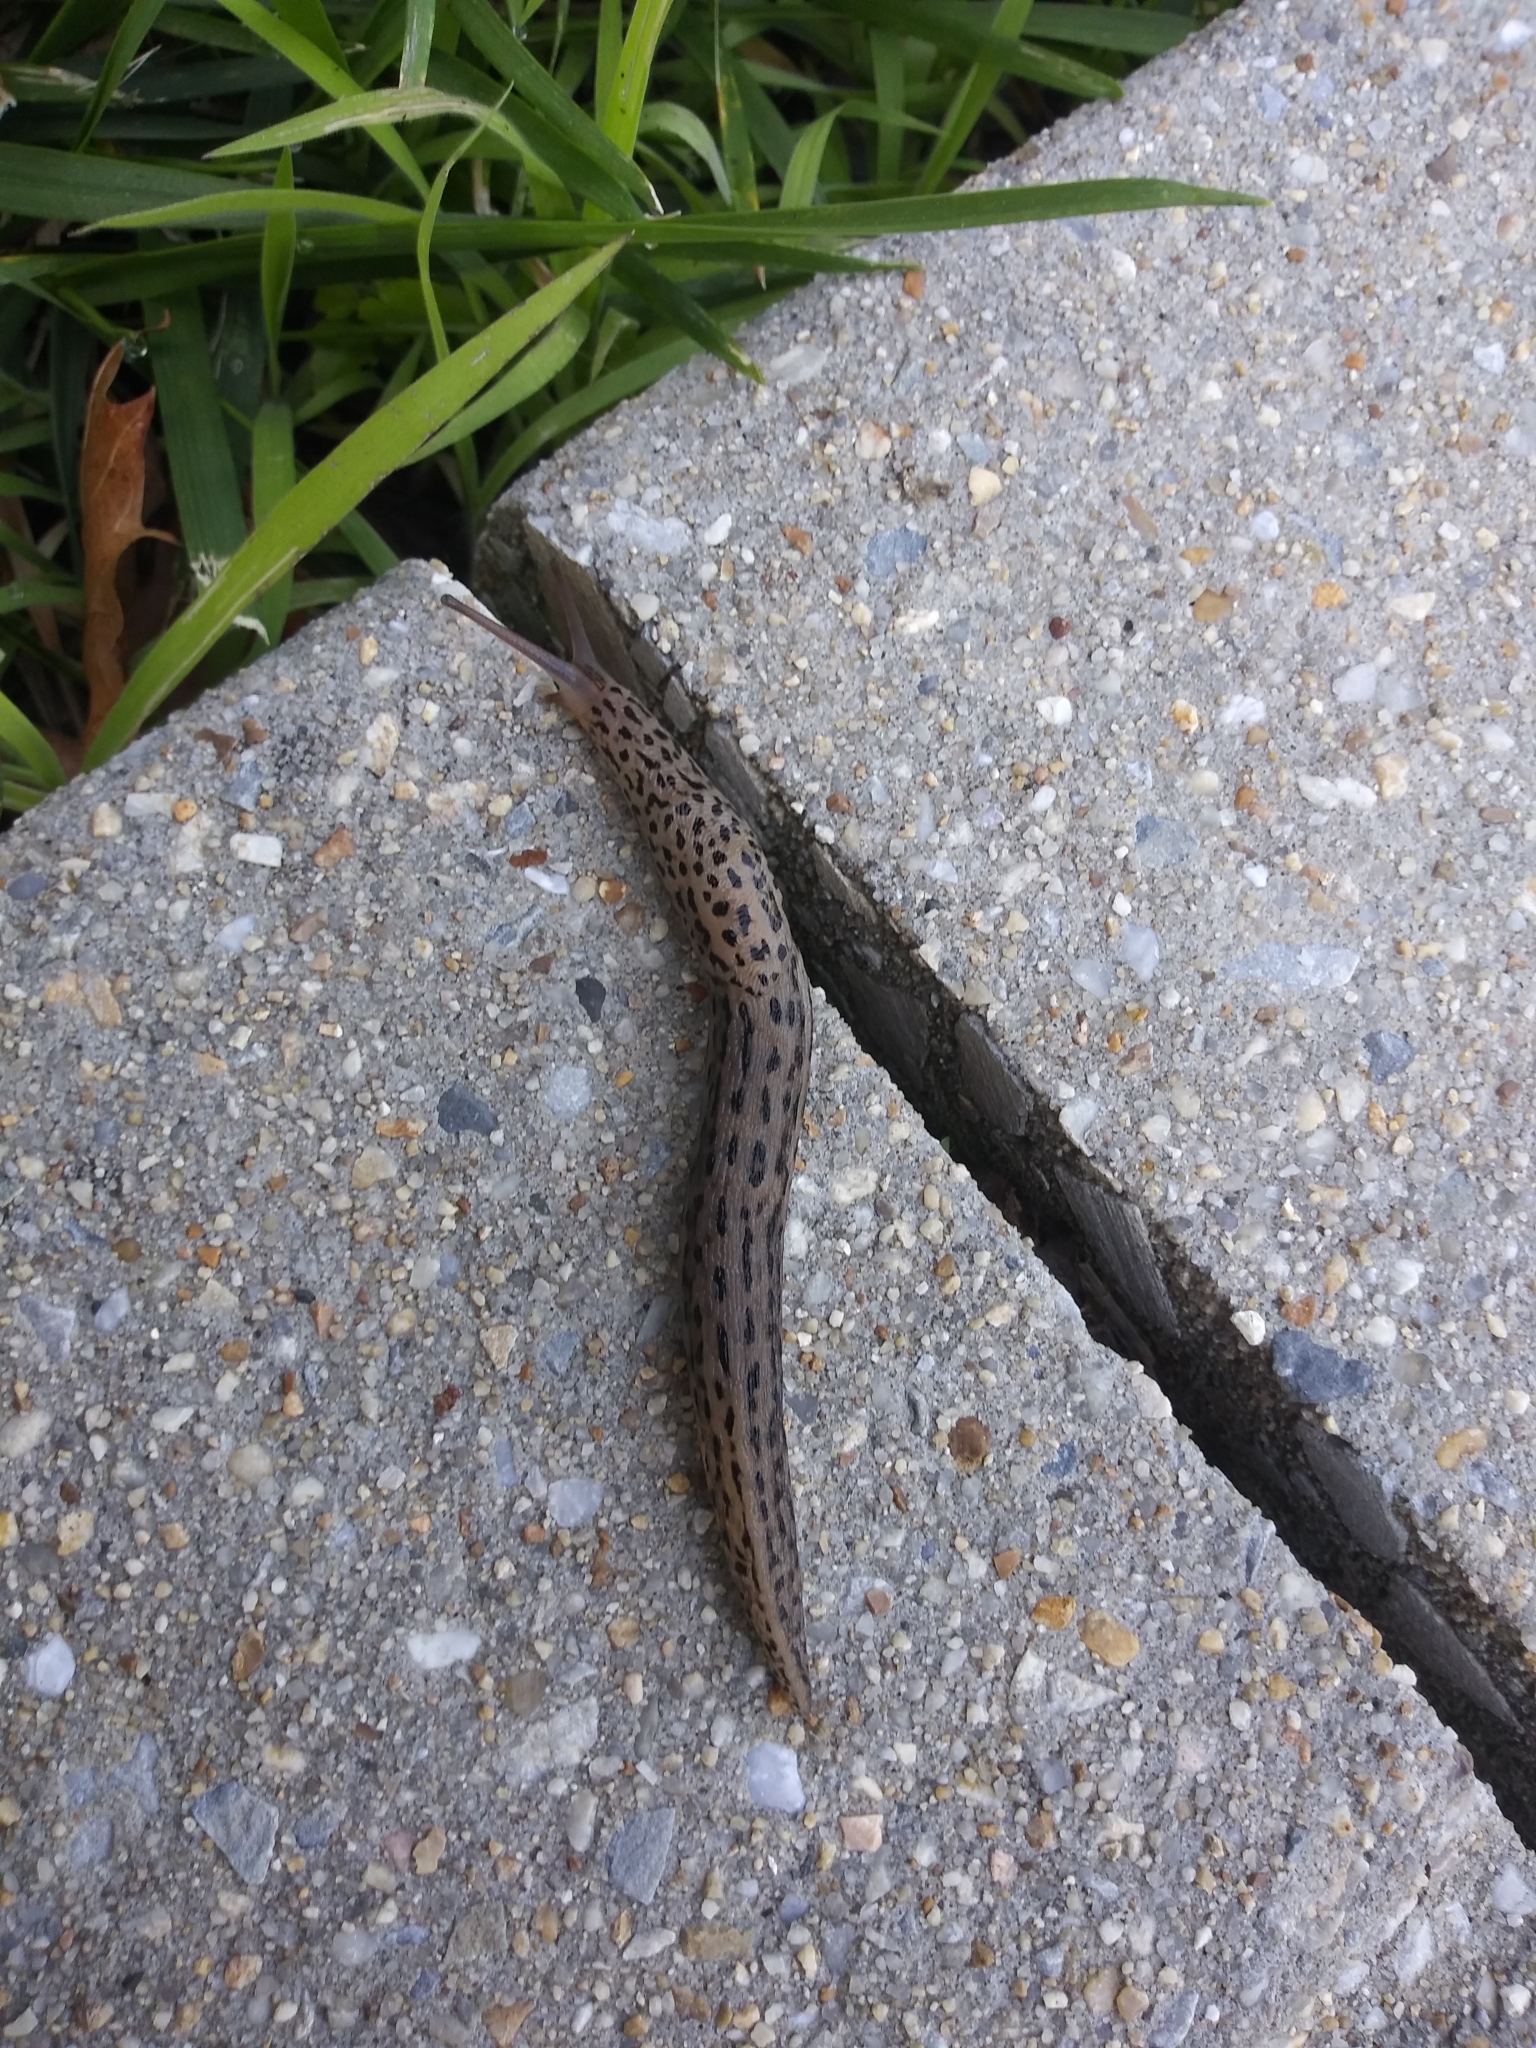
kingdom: Animalia
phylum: Mollusca
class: Gastropoda
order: Stylommatophora
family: Limacidae
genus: Limax
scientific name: Limax maximus
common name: Great grey slug
